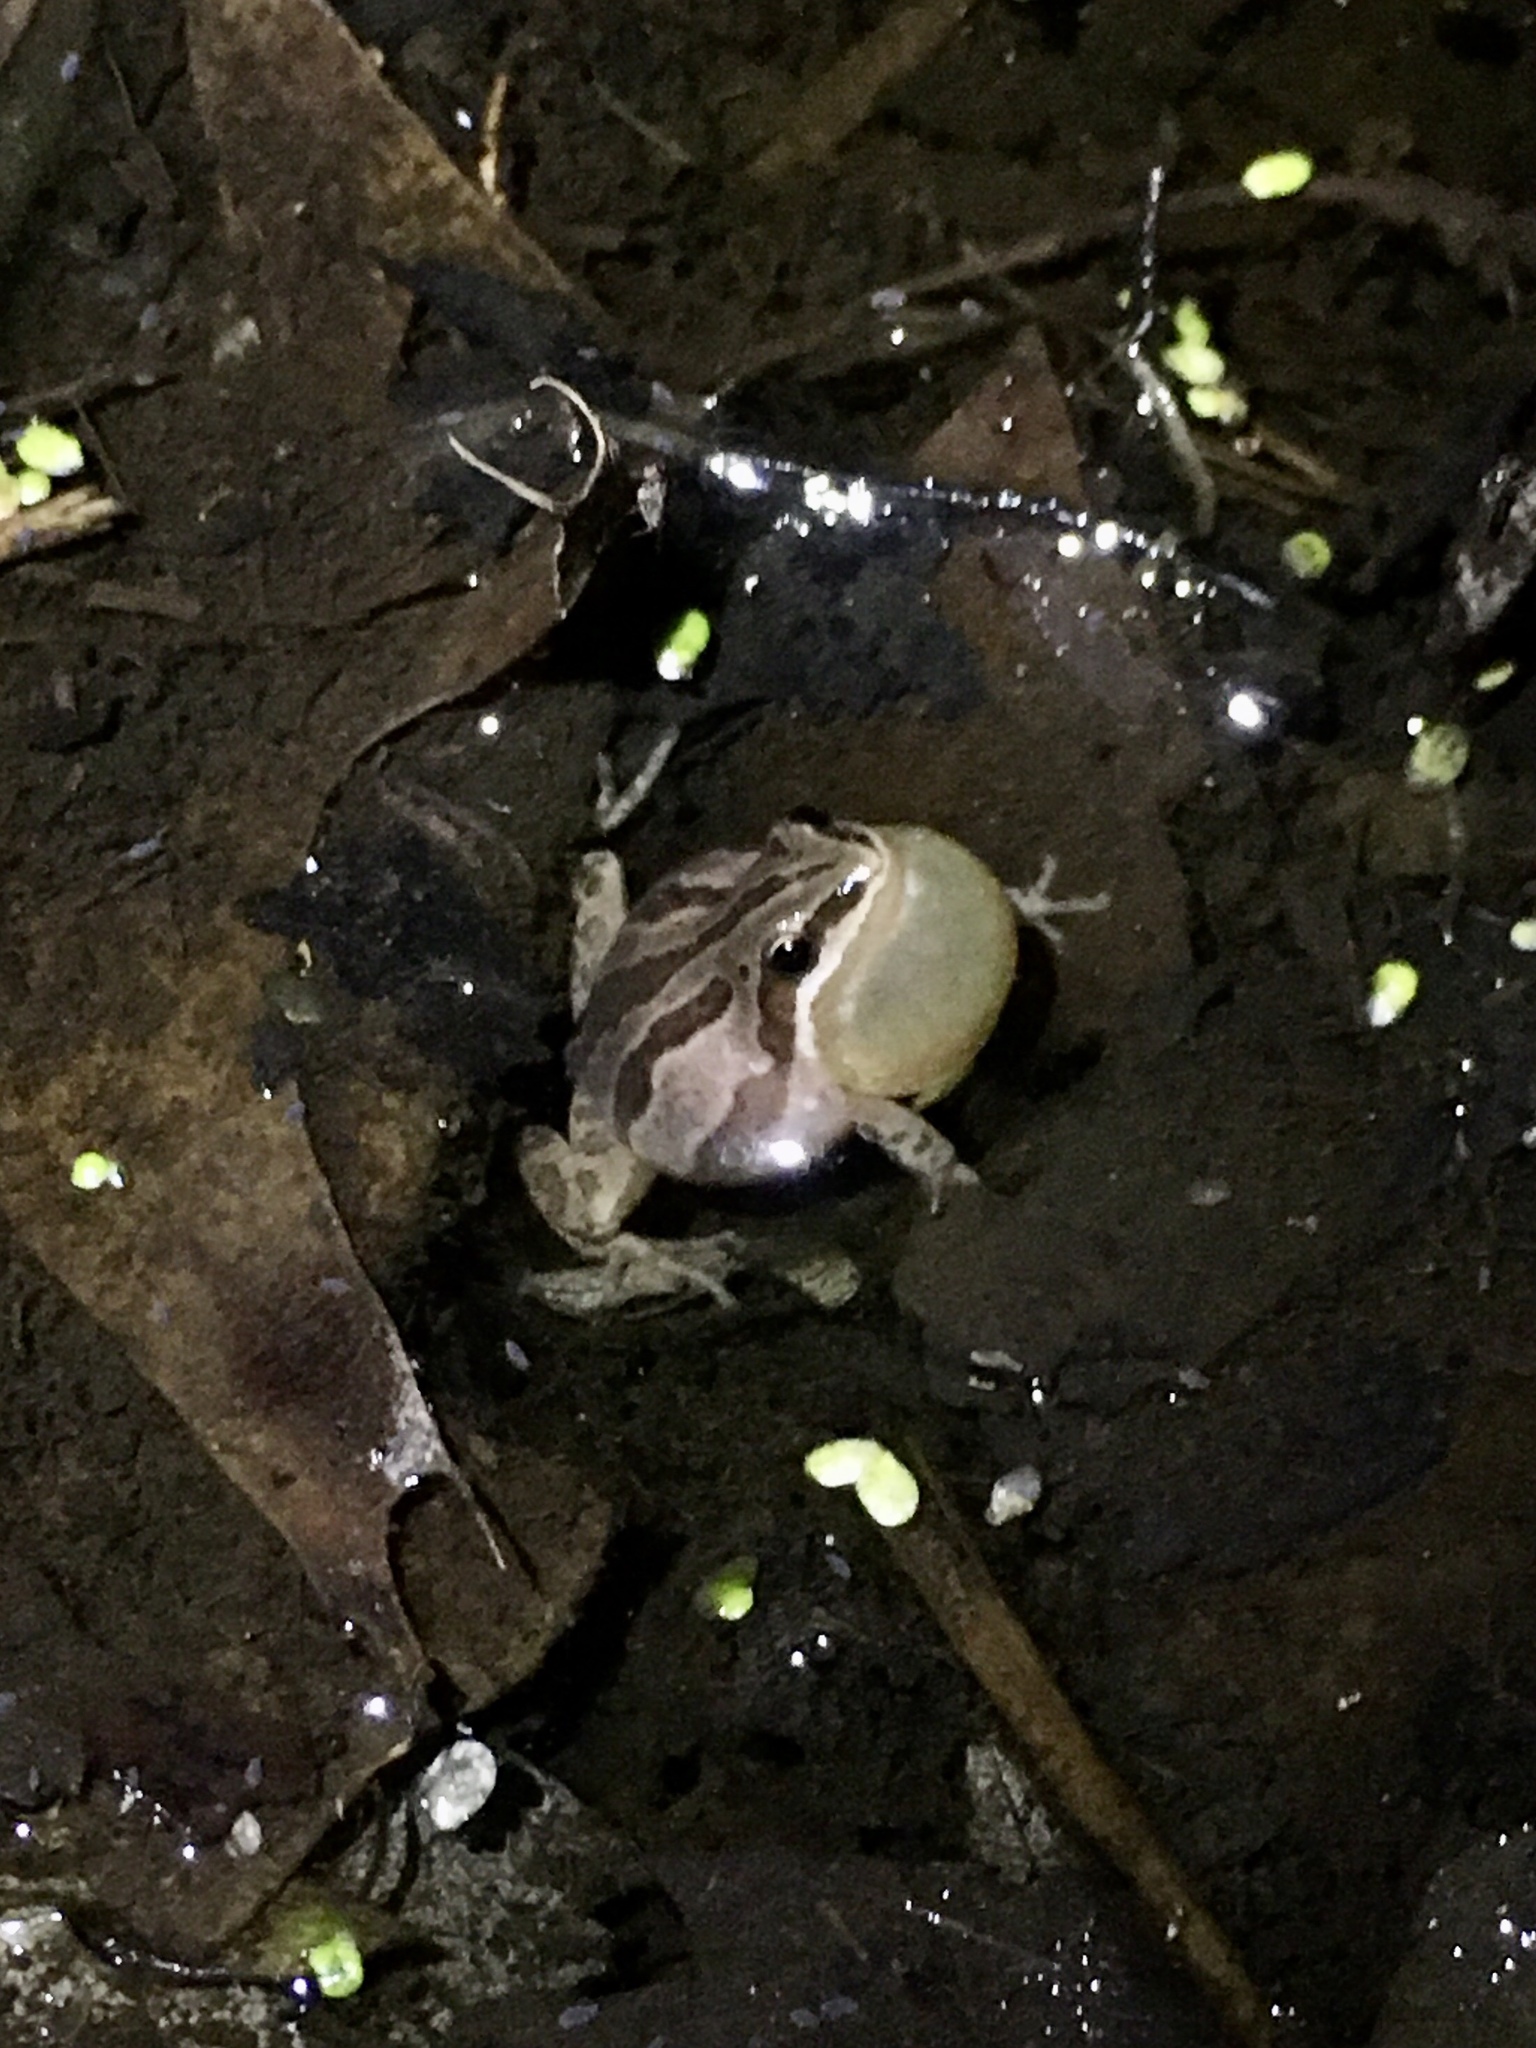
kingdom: Animalia
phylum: Chordata
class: Amphibia
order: Anura
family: Hylidae
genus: Pseudacris
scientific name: Pseudacris maculata
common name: Boreal chorus frog
